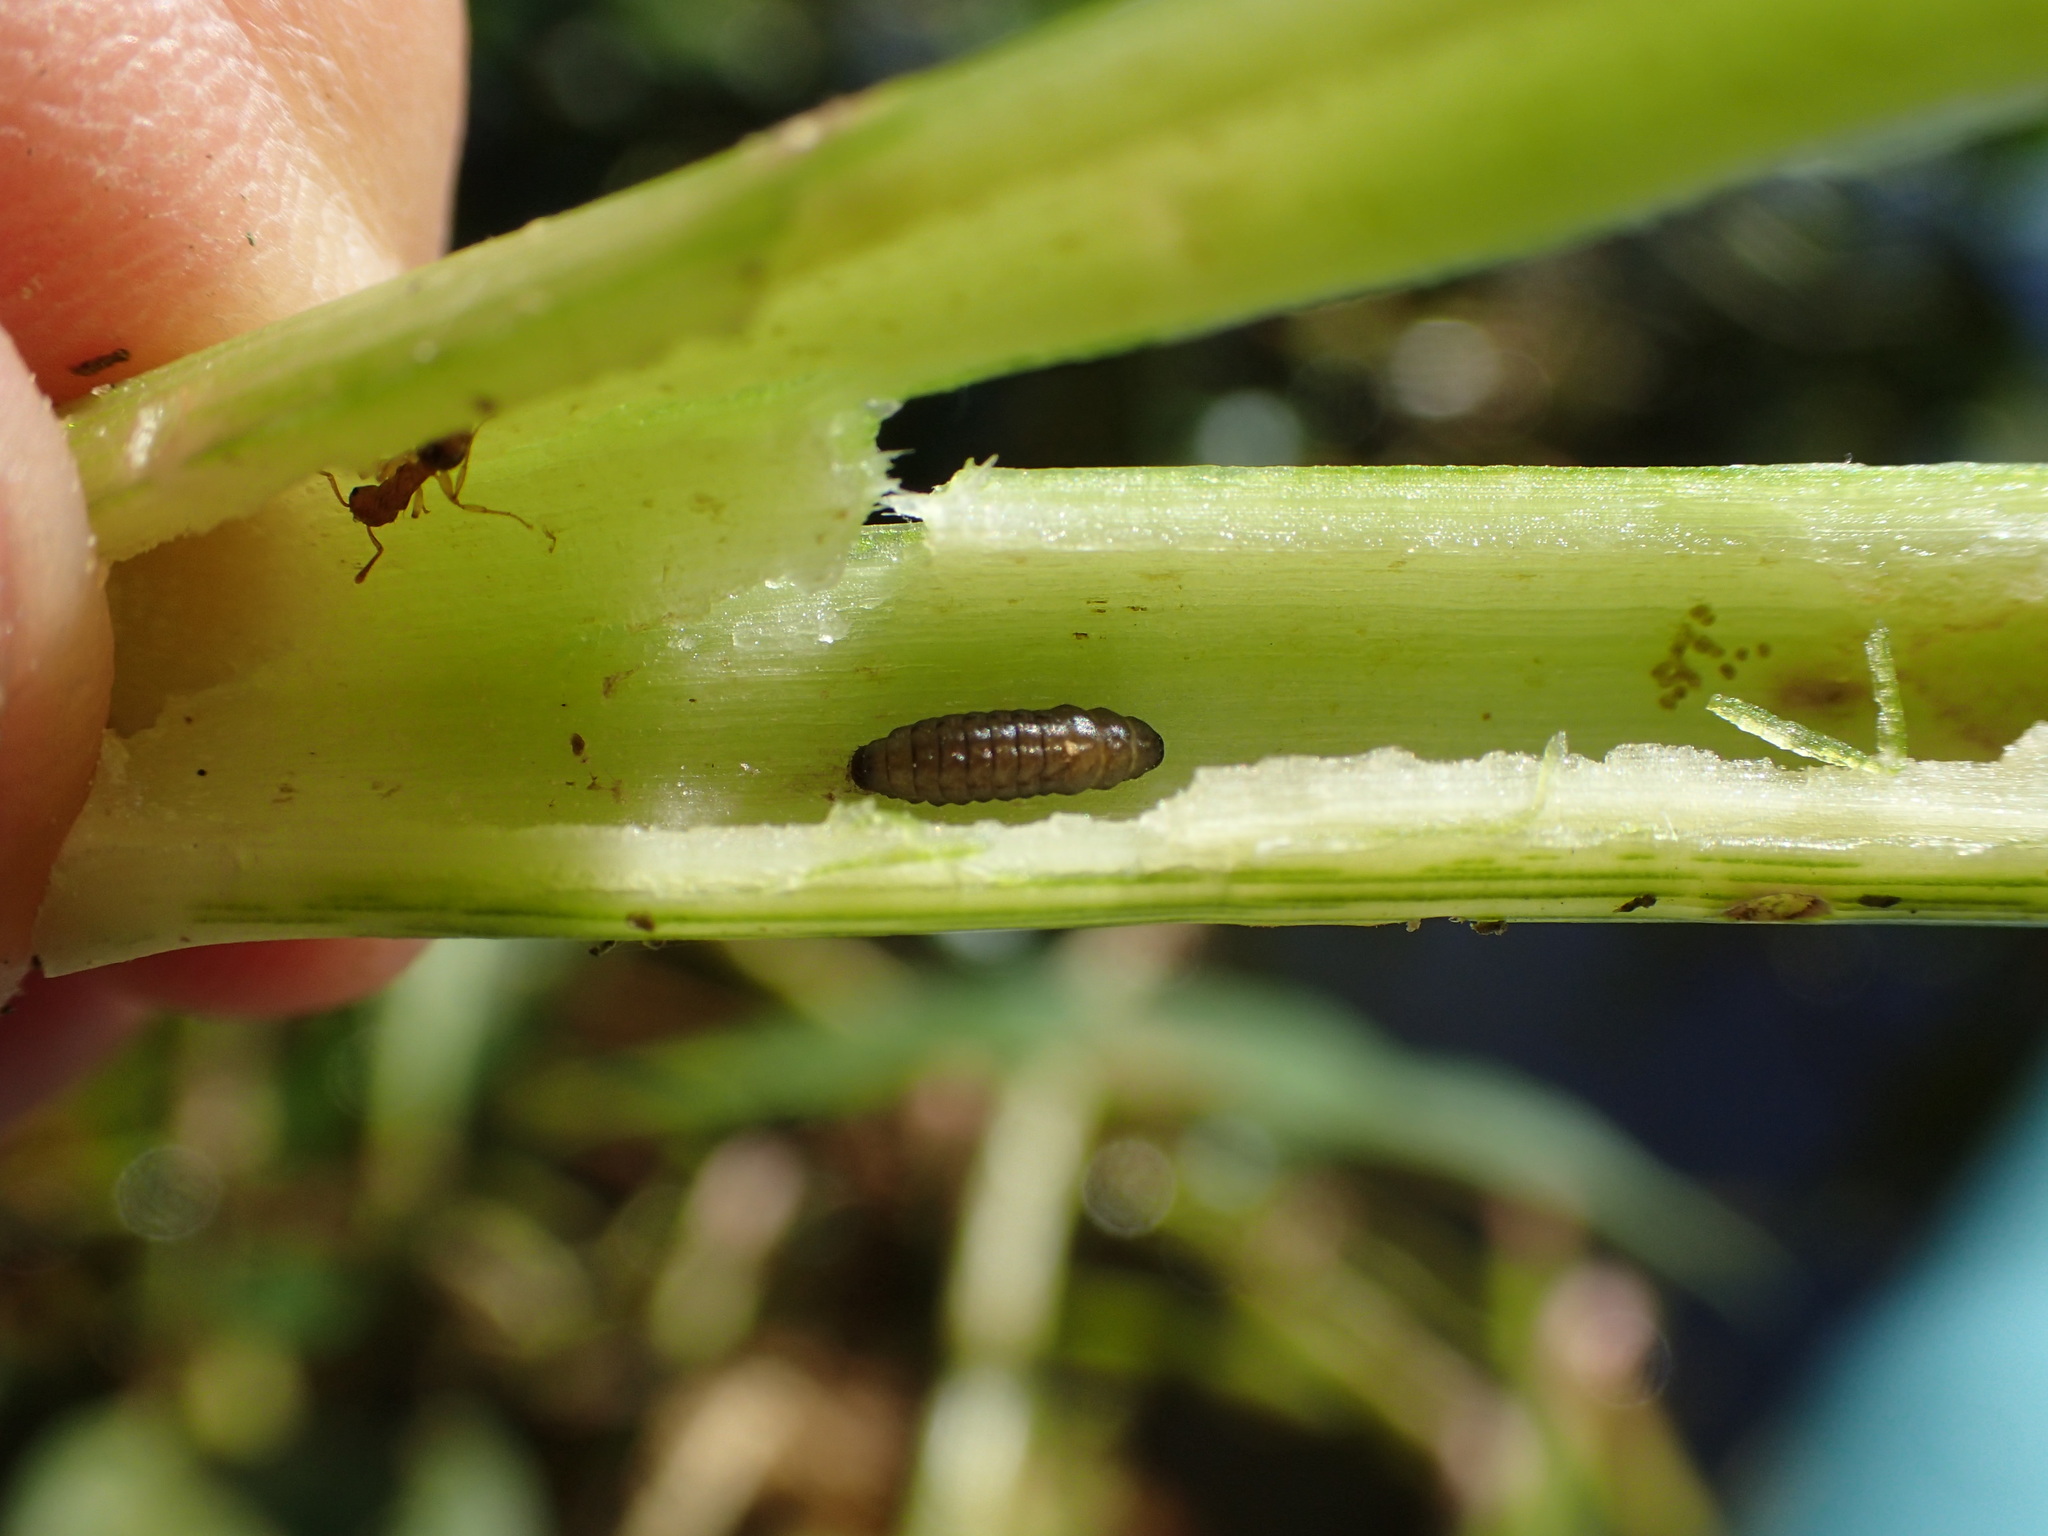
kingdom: Animalia
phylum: Arthropoda
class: Insecta
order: Coleoptera
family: Chrysomelidae
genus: Agasicles
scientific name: Agasicles hygrophila
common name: Alligatorweed flea beetle
